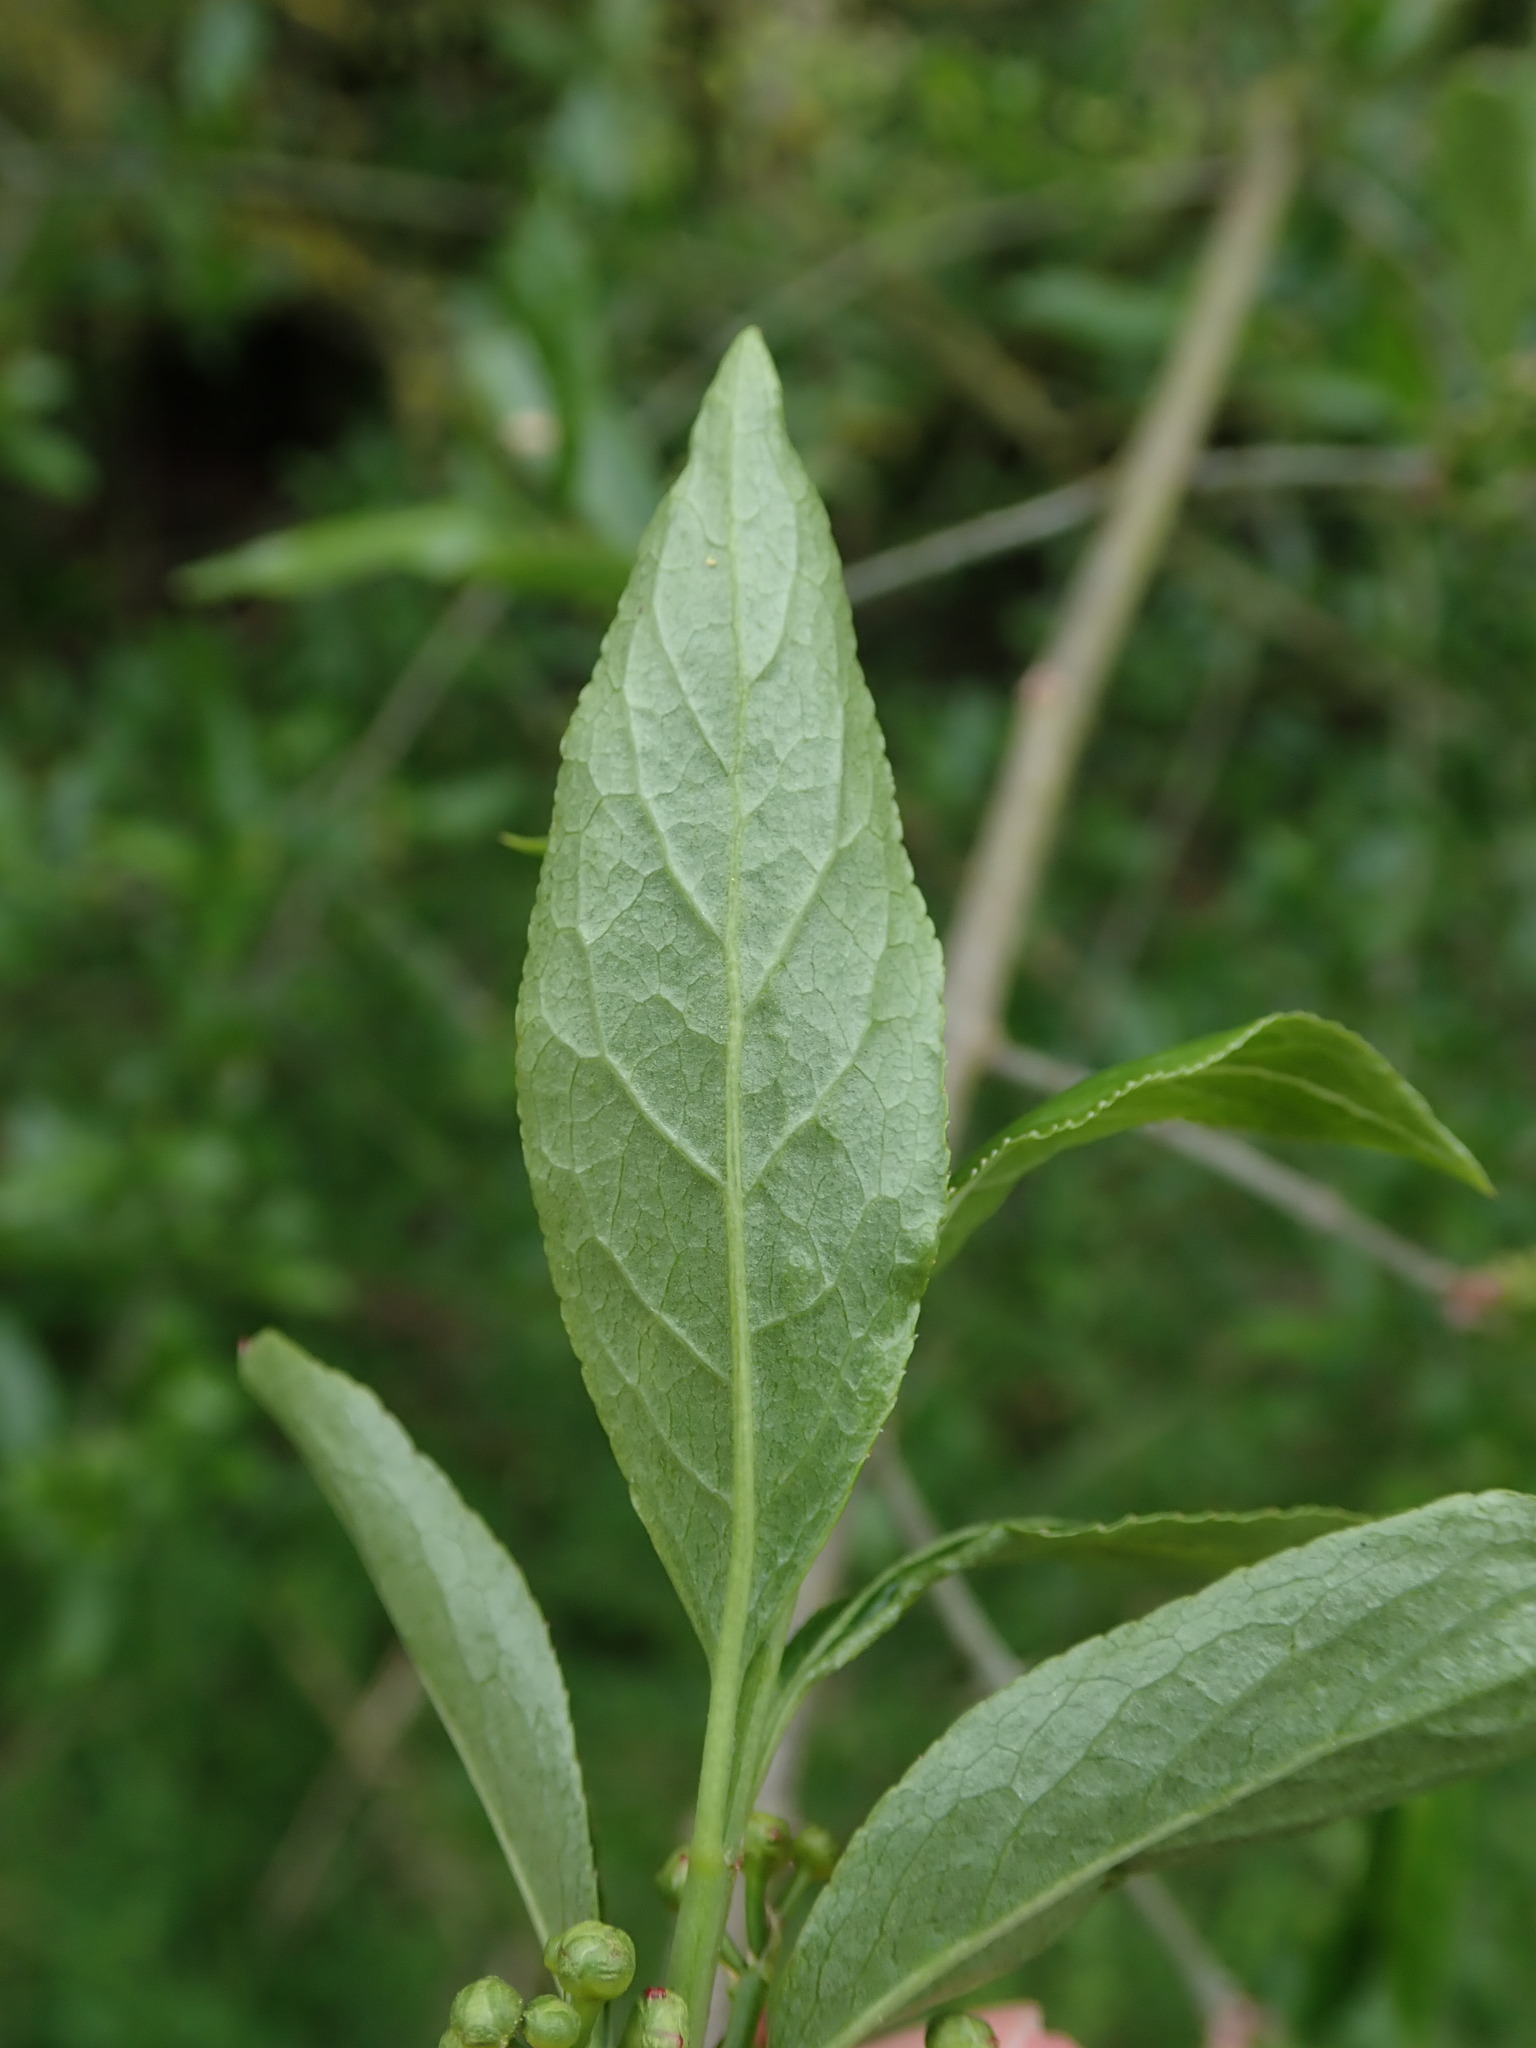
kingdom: Plantae
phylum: Tracheophyta
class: Magnoliopsida
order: Celastrales
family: Celastraceae
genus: Euonymus
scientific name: Euonymus europaeus
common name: Spindle
